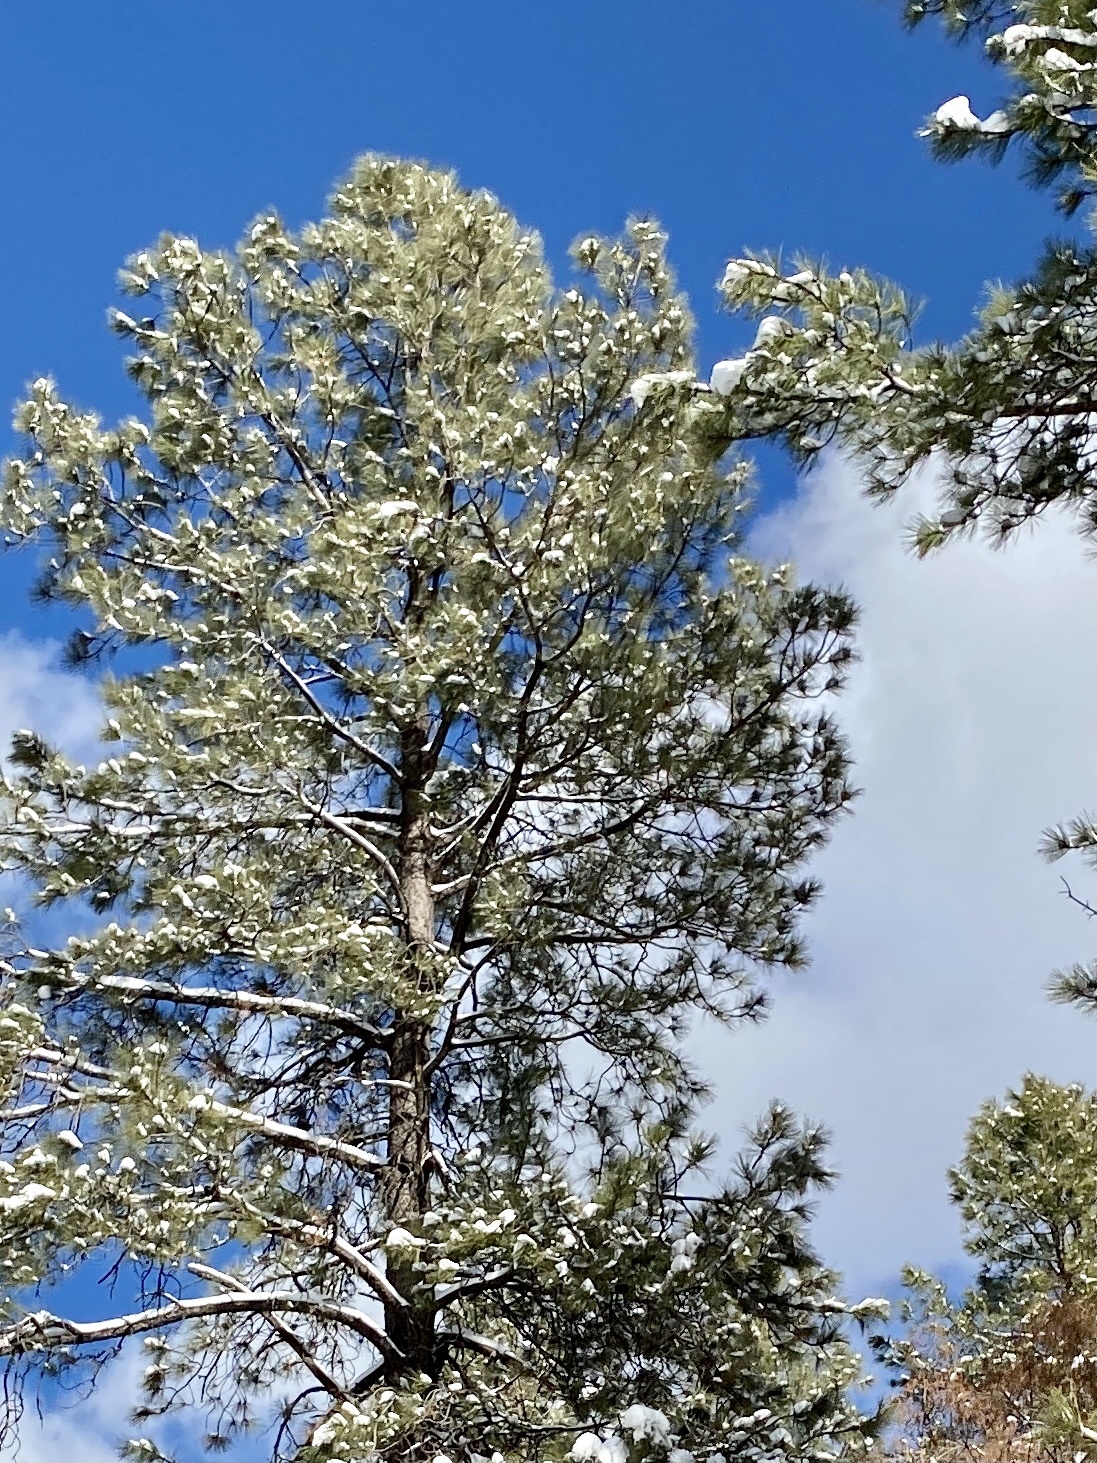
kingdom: Plantae
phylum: Tracheophyta
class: Pinopsida
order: Pinales
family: Pinaceae
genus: Pinus
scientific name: Pinus ponderosa
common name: Western yellow-pine
